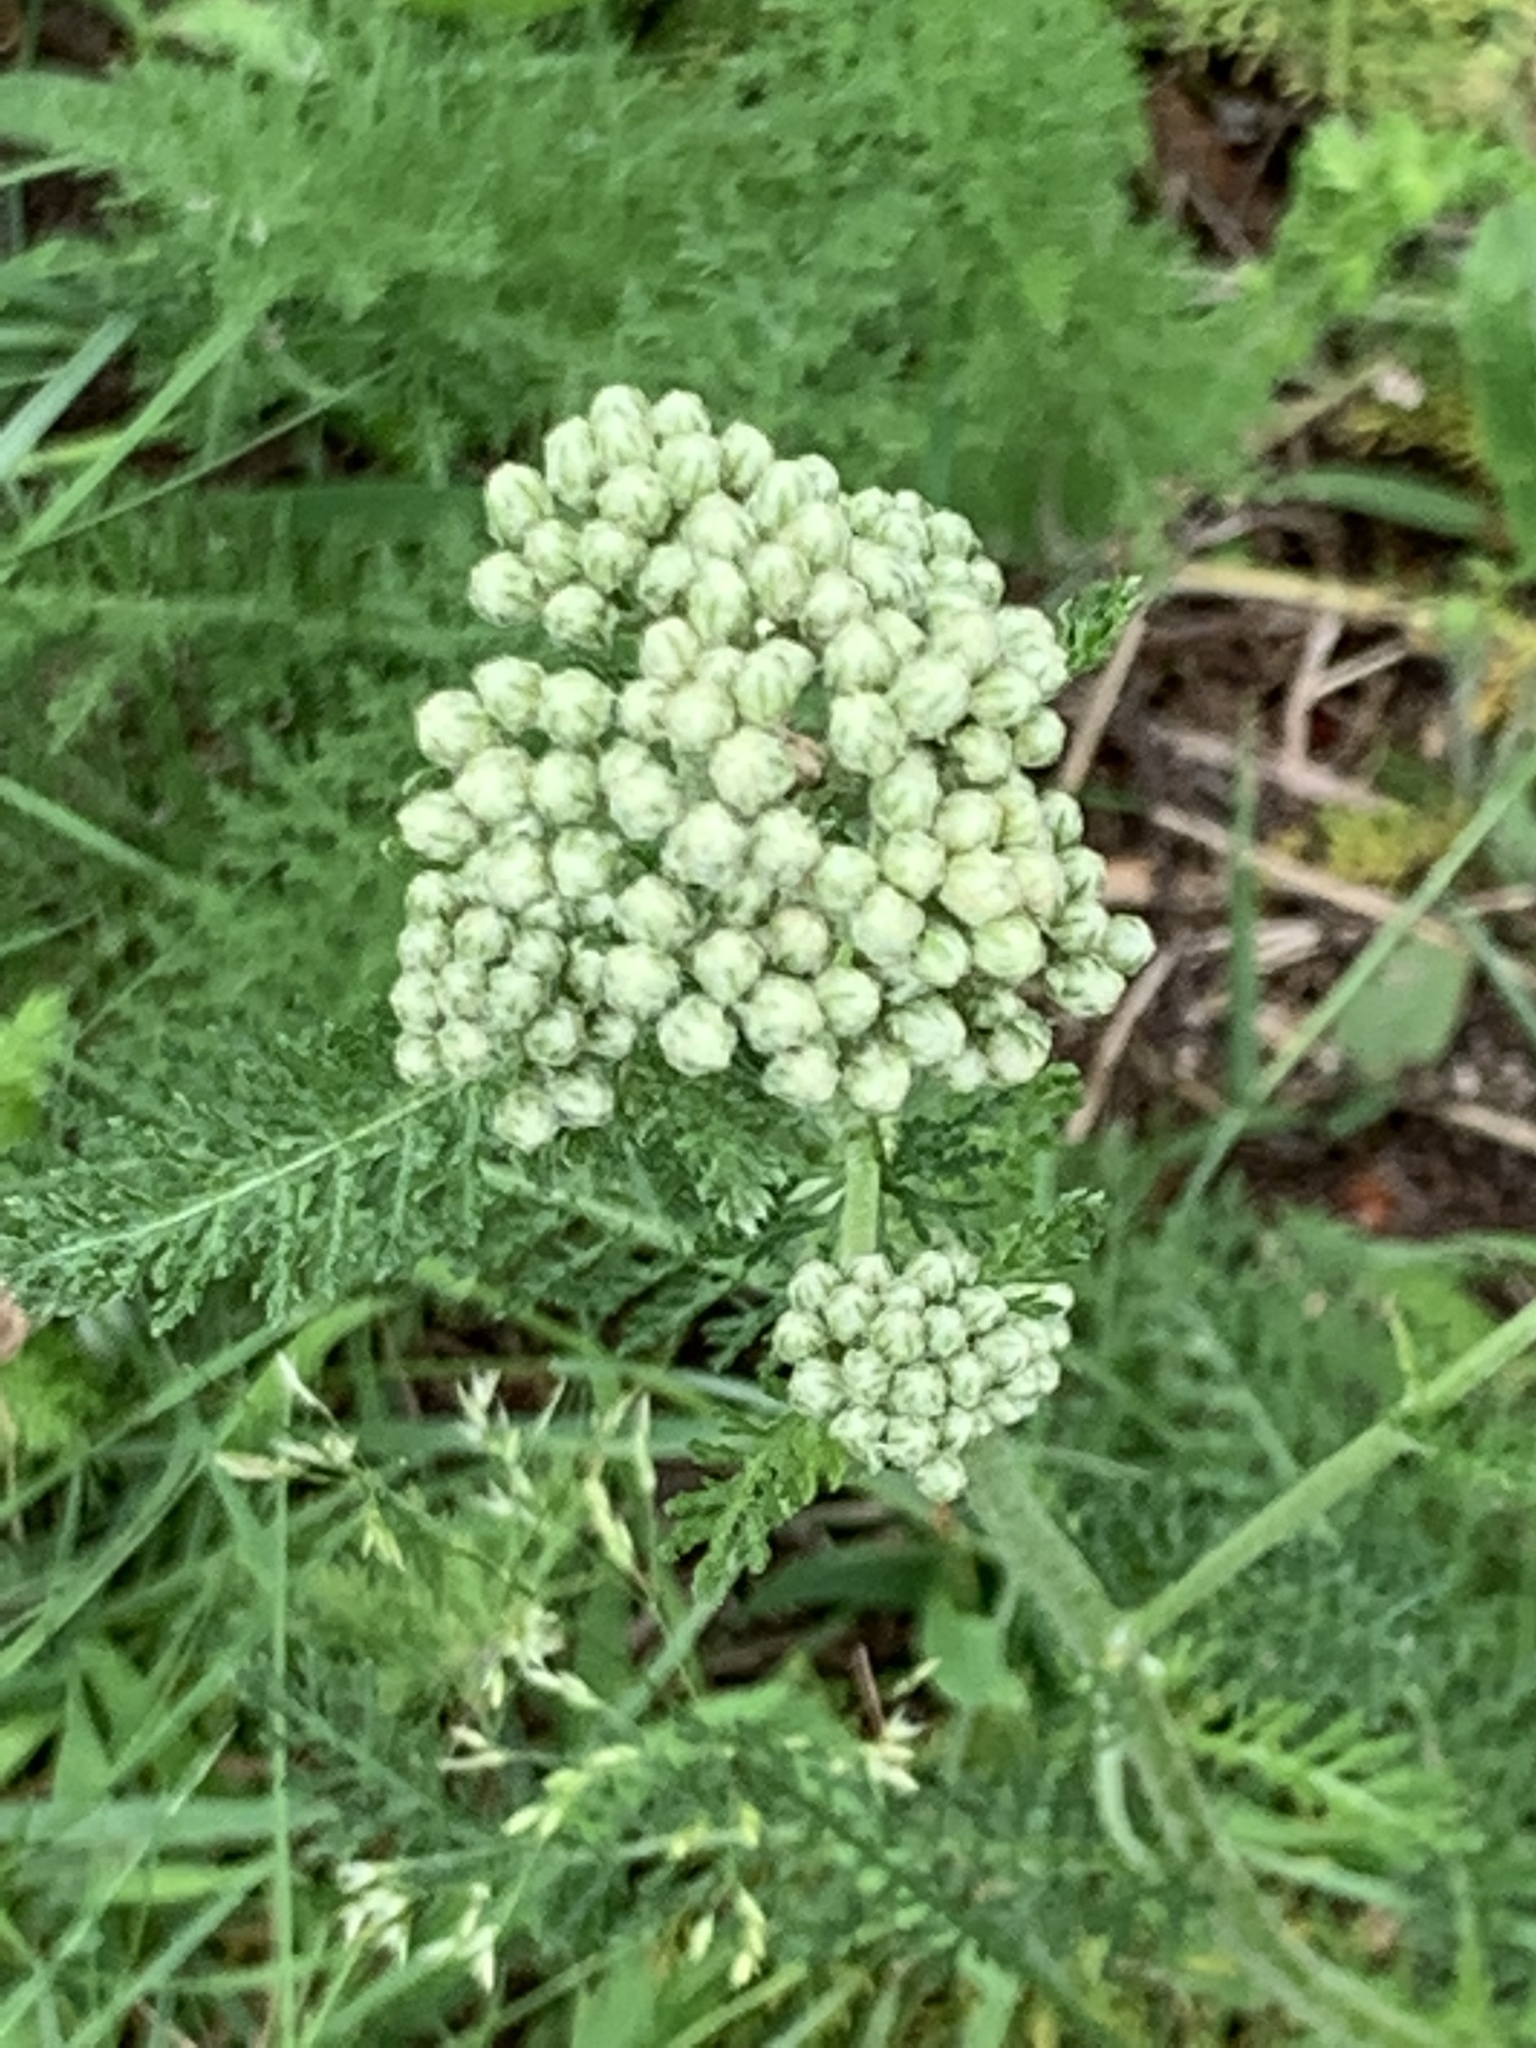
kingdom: Plantae
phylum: Tracheophyta
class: Magnoliopsida
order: Asterales
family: Asteraceae
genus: Achillea
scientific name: Achillea millefolium
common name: Yarrow
